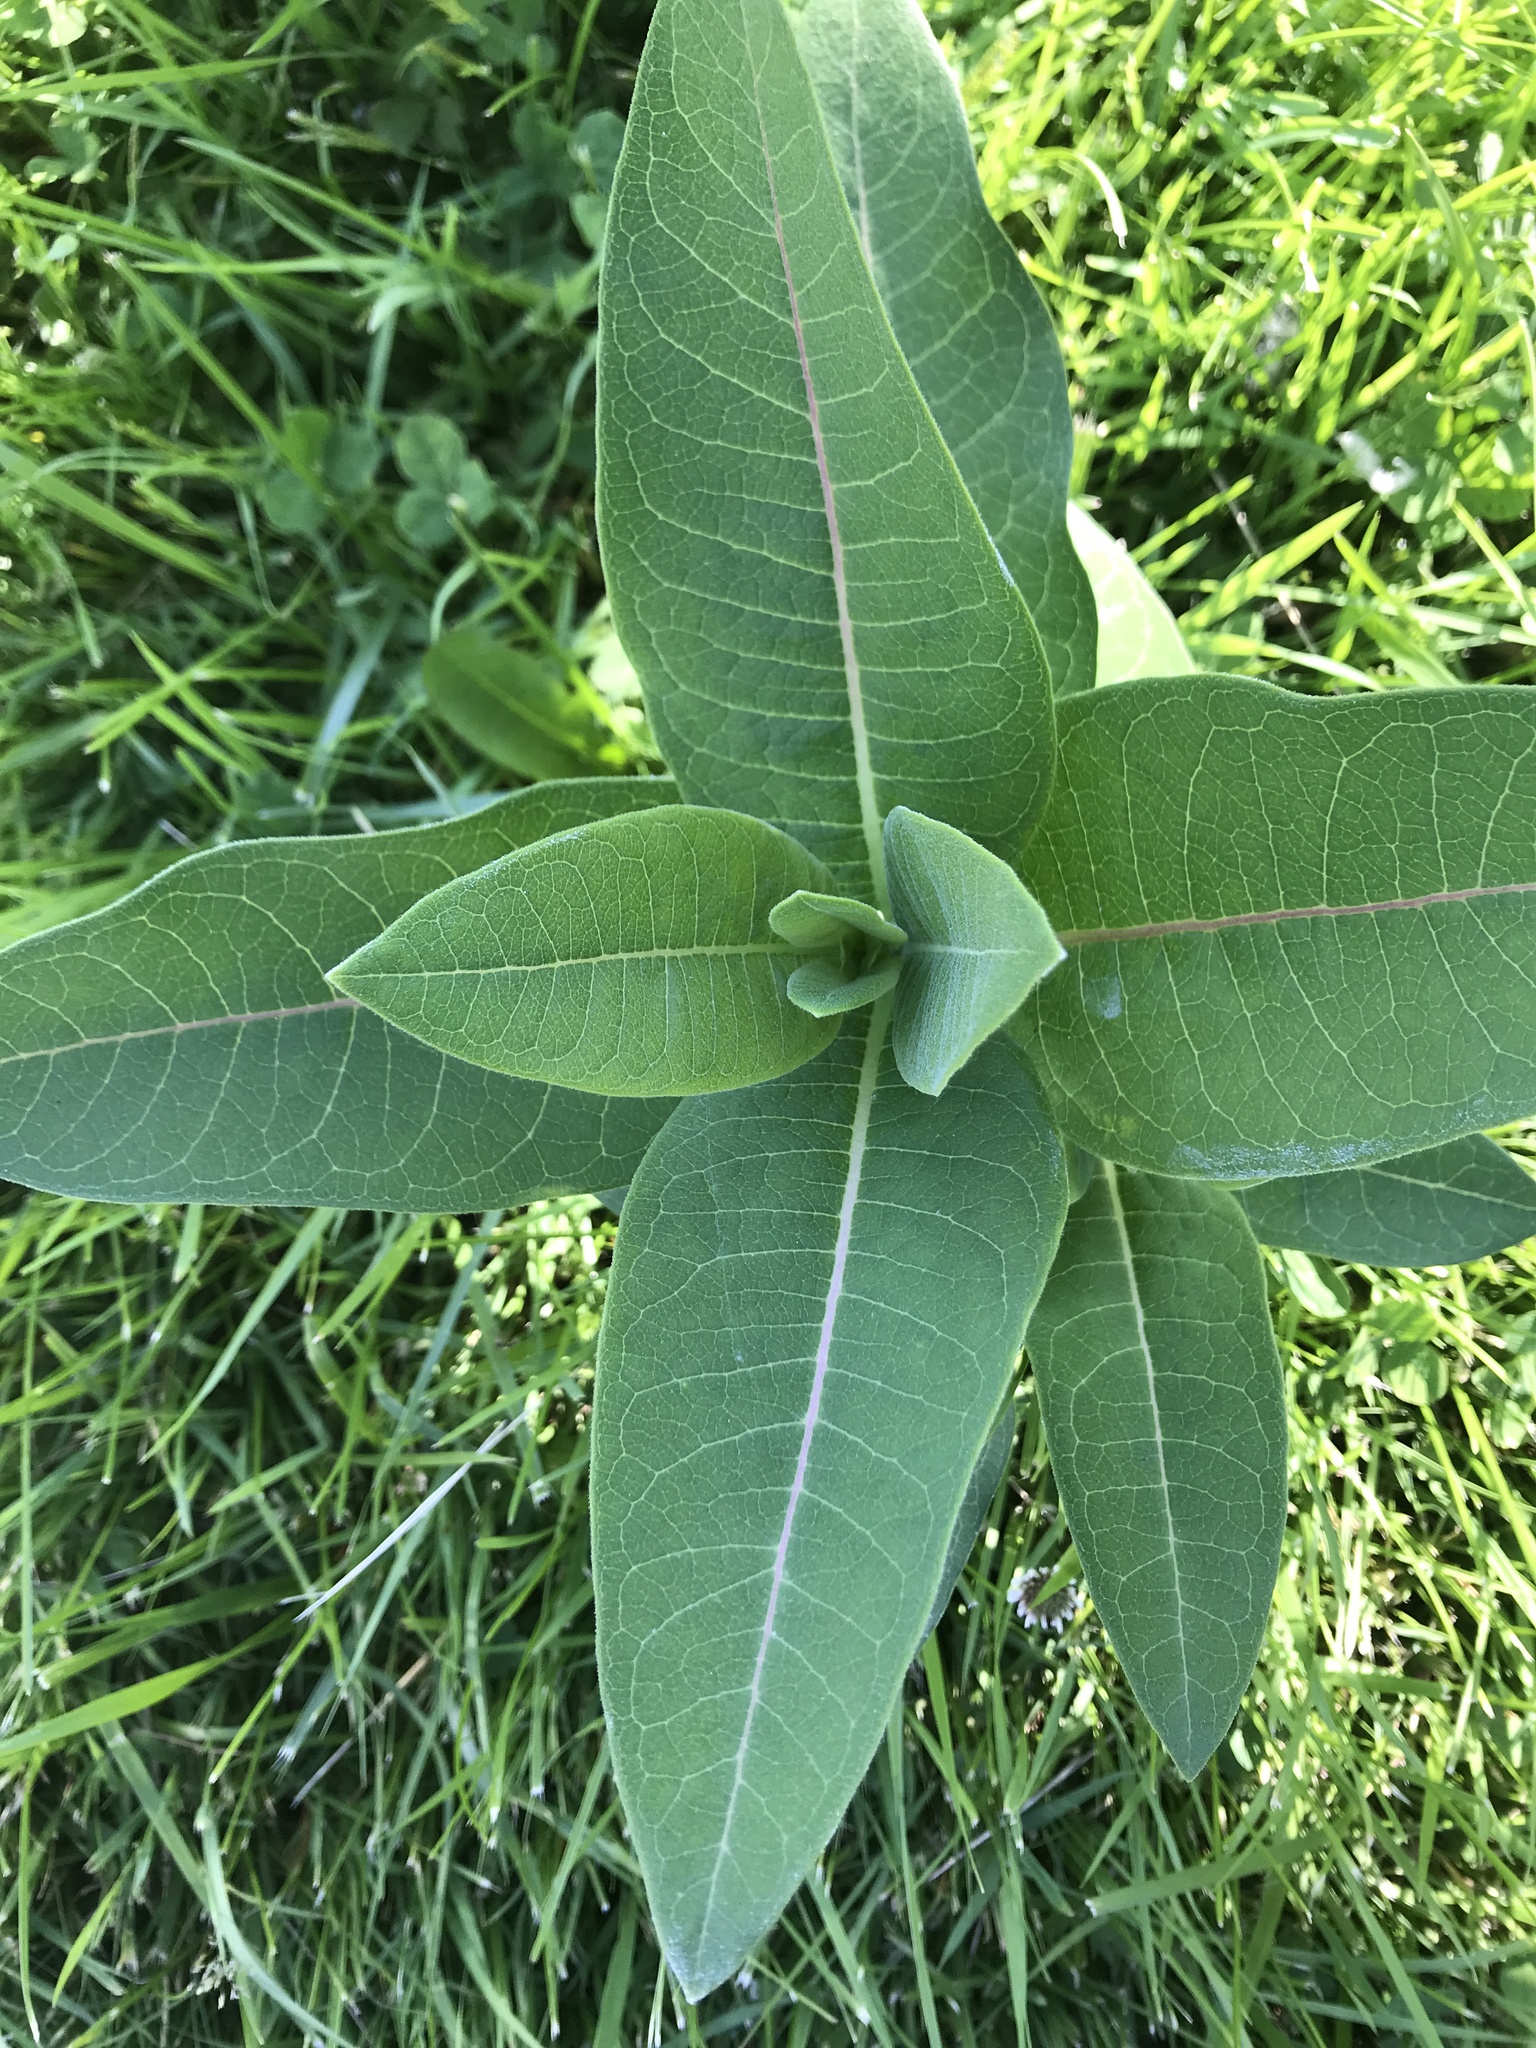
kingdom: Plantae
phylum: Tracheophyta
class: Magnoliopsida
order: Gentianales
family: Apocynaceae
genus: Asclepias
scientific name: Asclepias syriaca
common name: Common milkweed
